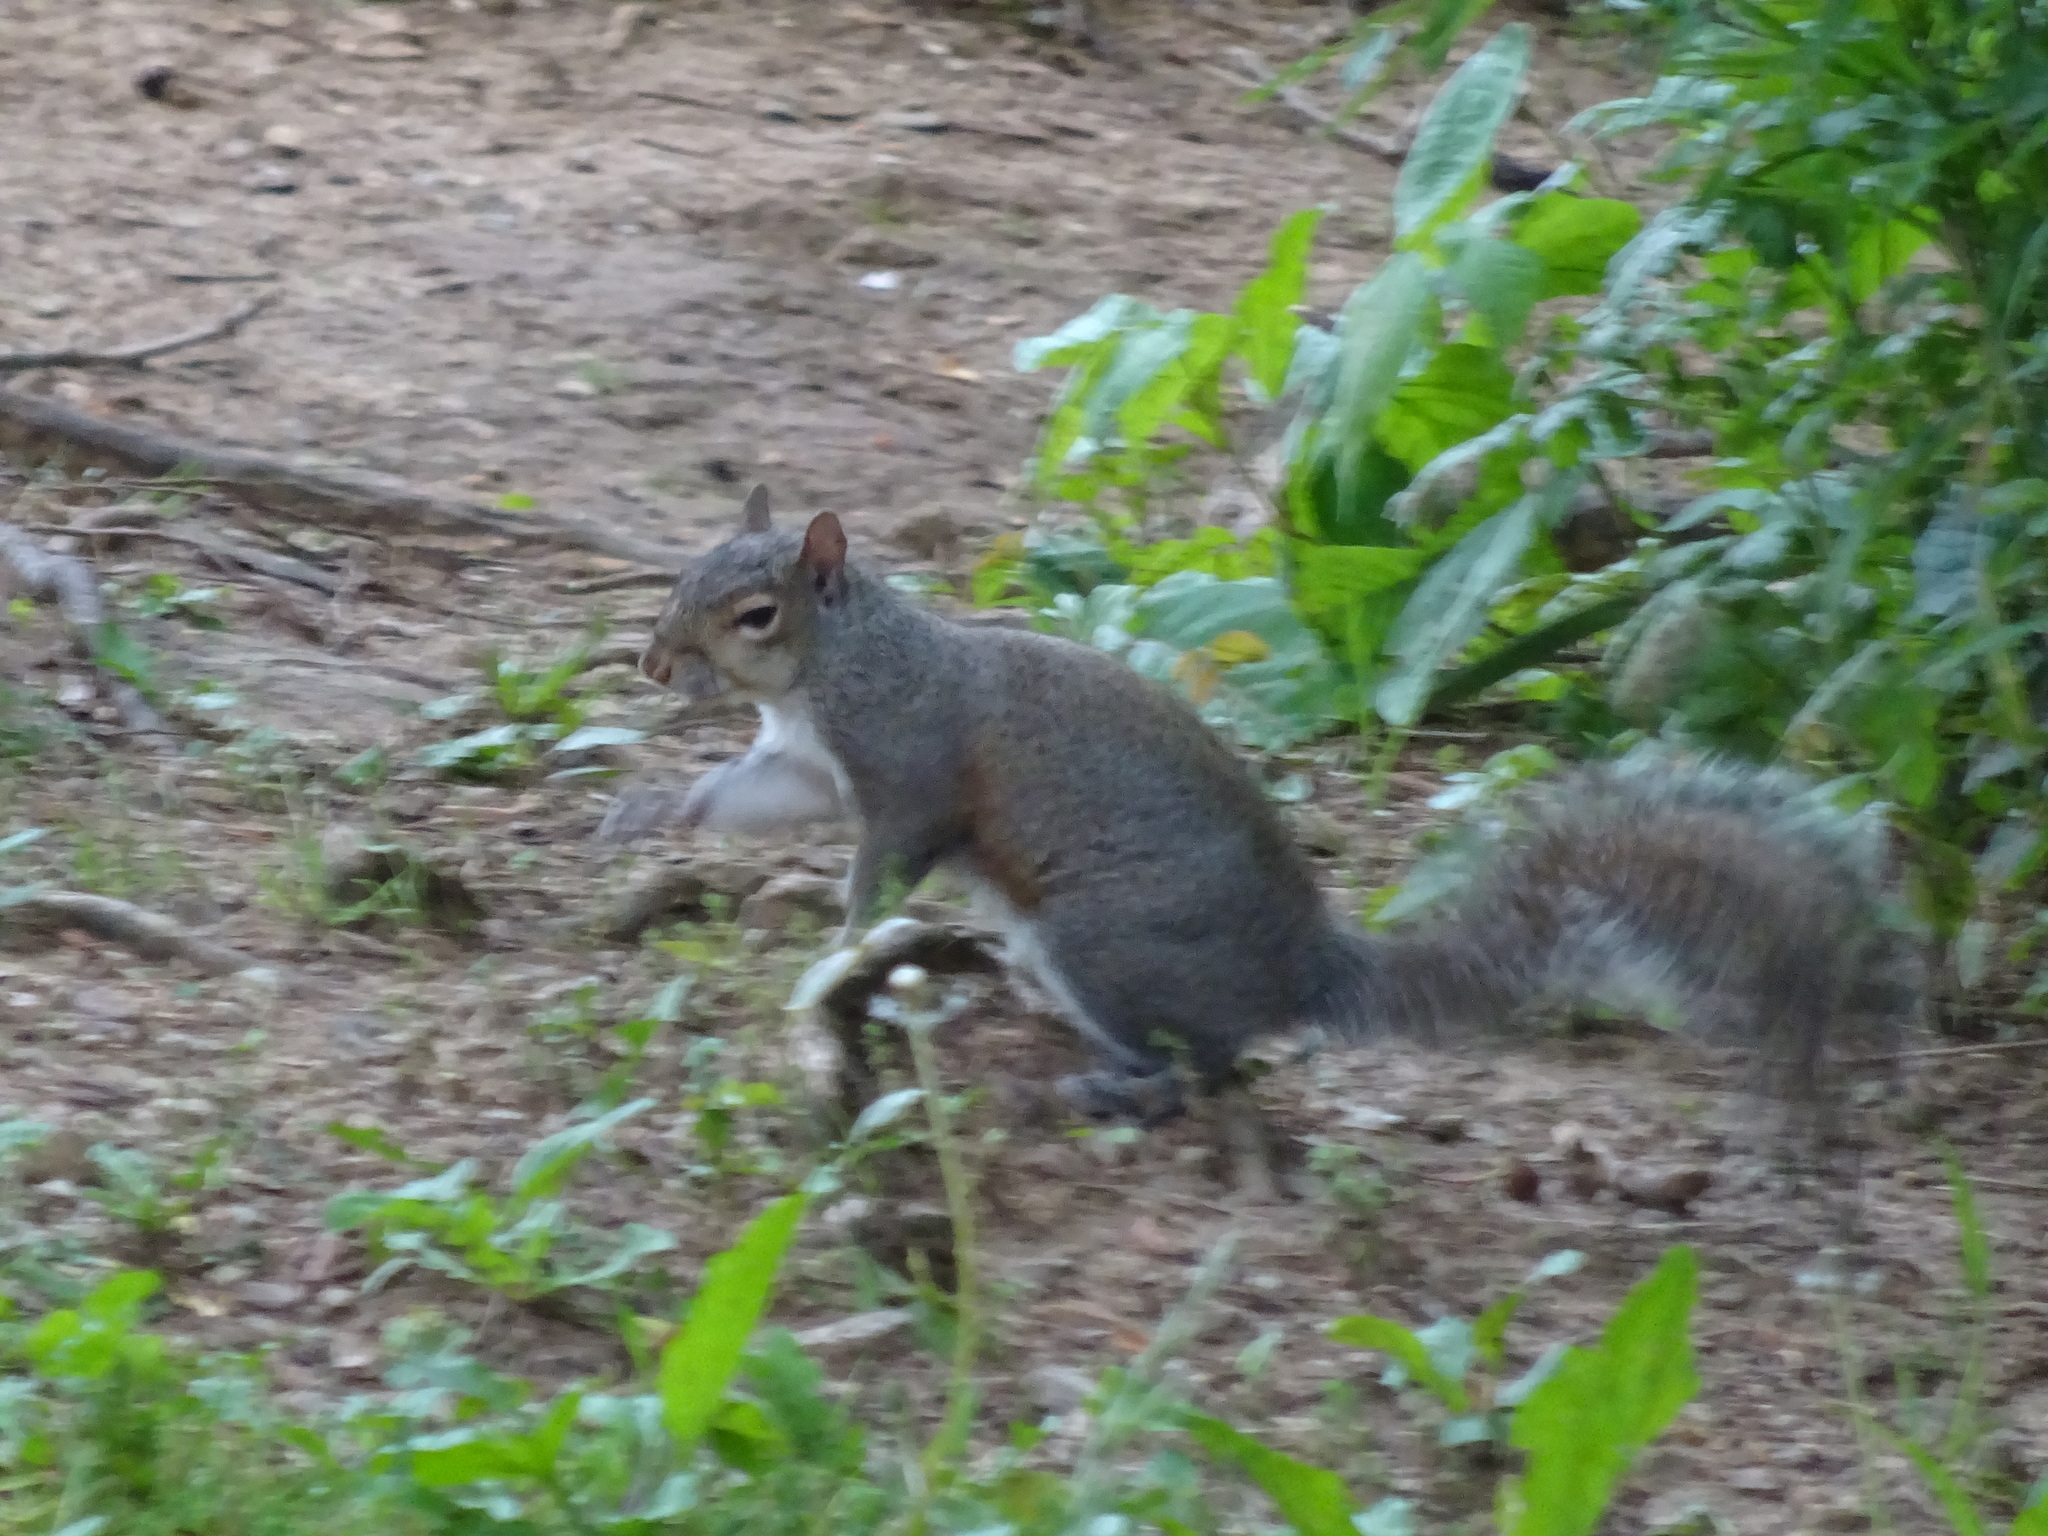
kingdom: Animalia
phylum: Chordata
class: Mammalia
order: Rodentia
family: Sciuridae
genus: Sciurus
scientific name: Sciurus carolinensis
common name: Eastern gray squirrel
